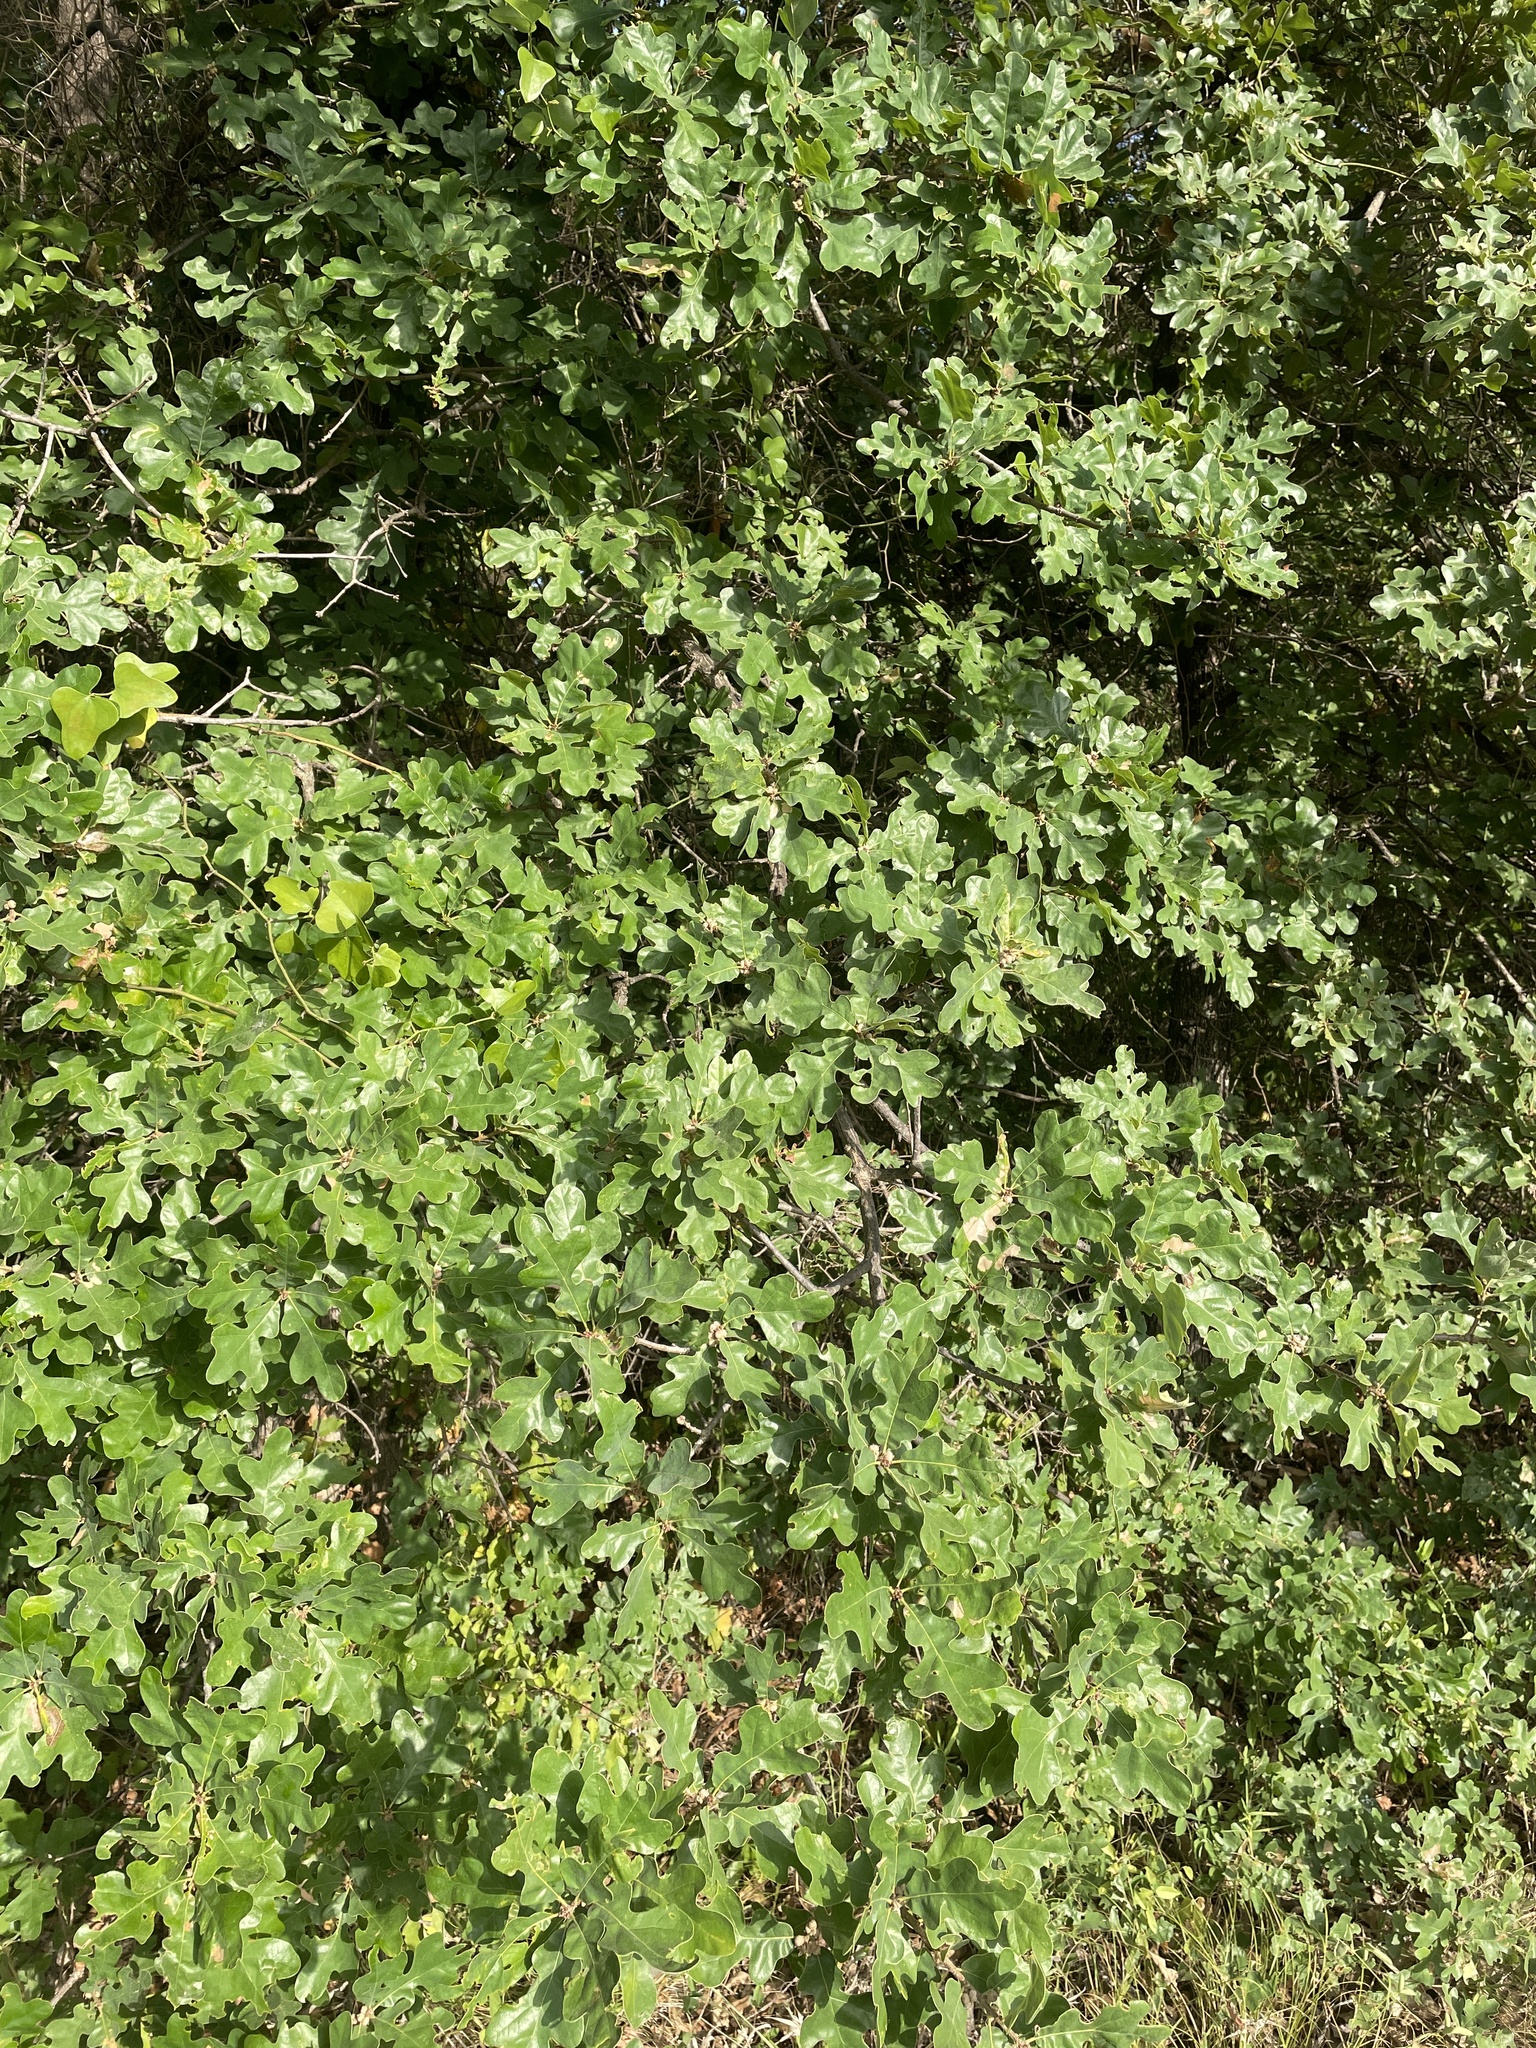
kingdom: Plantae
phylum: Tracheophyta
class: Magnoliopsida
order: Fagales
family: Fagaceae
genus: Quercus
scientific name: Quercus stellata
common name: Post oak
